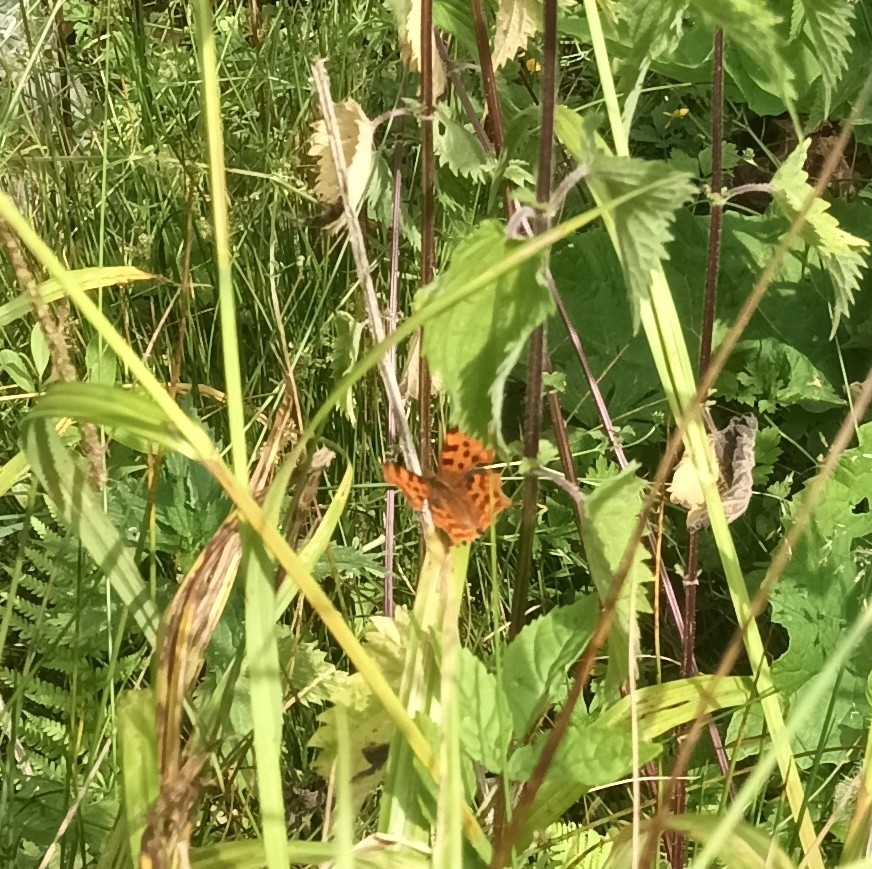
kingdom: Animalia
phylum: Arthropoda
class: Insecta
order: Lepidoptera
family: Nymphalidae
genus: Polygonia
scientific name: Polygonia c-album
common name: Comma
